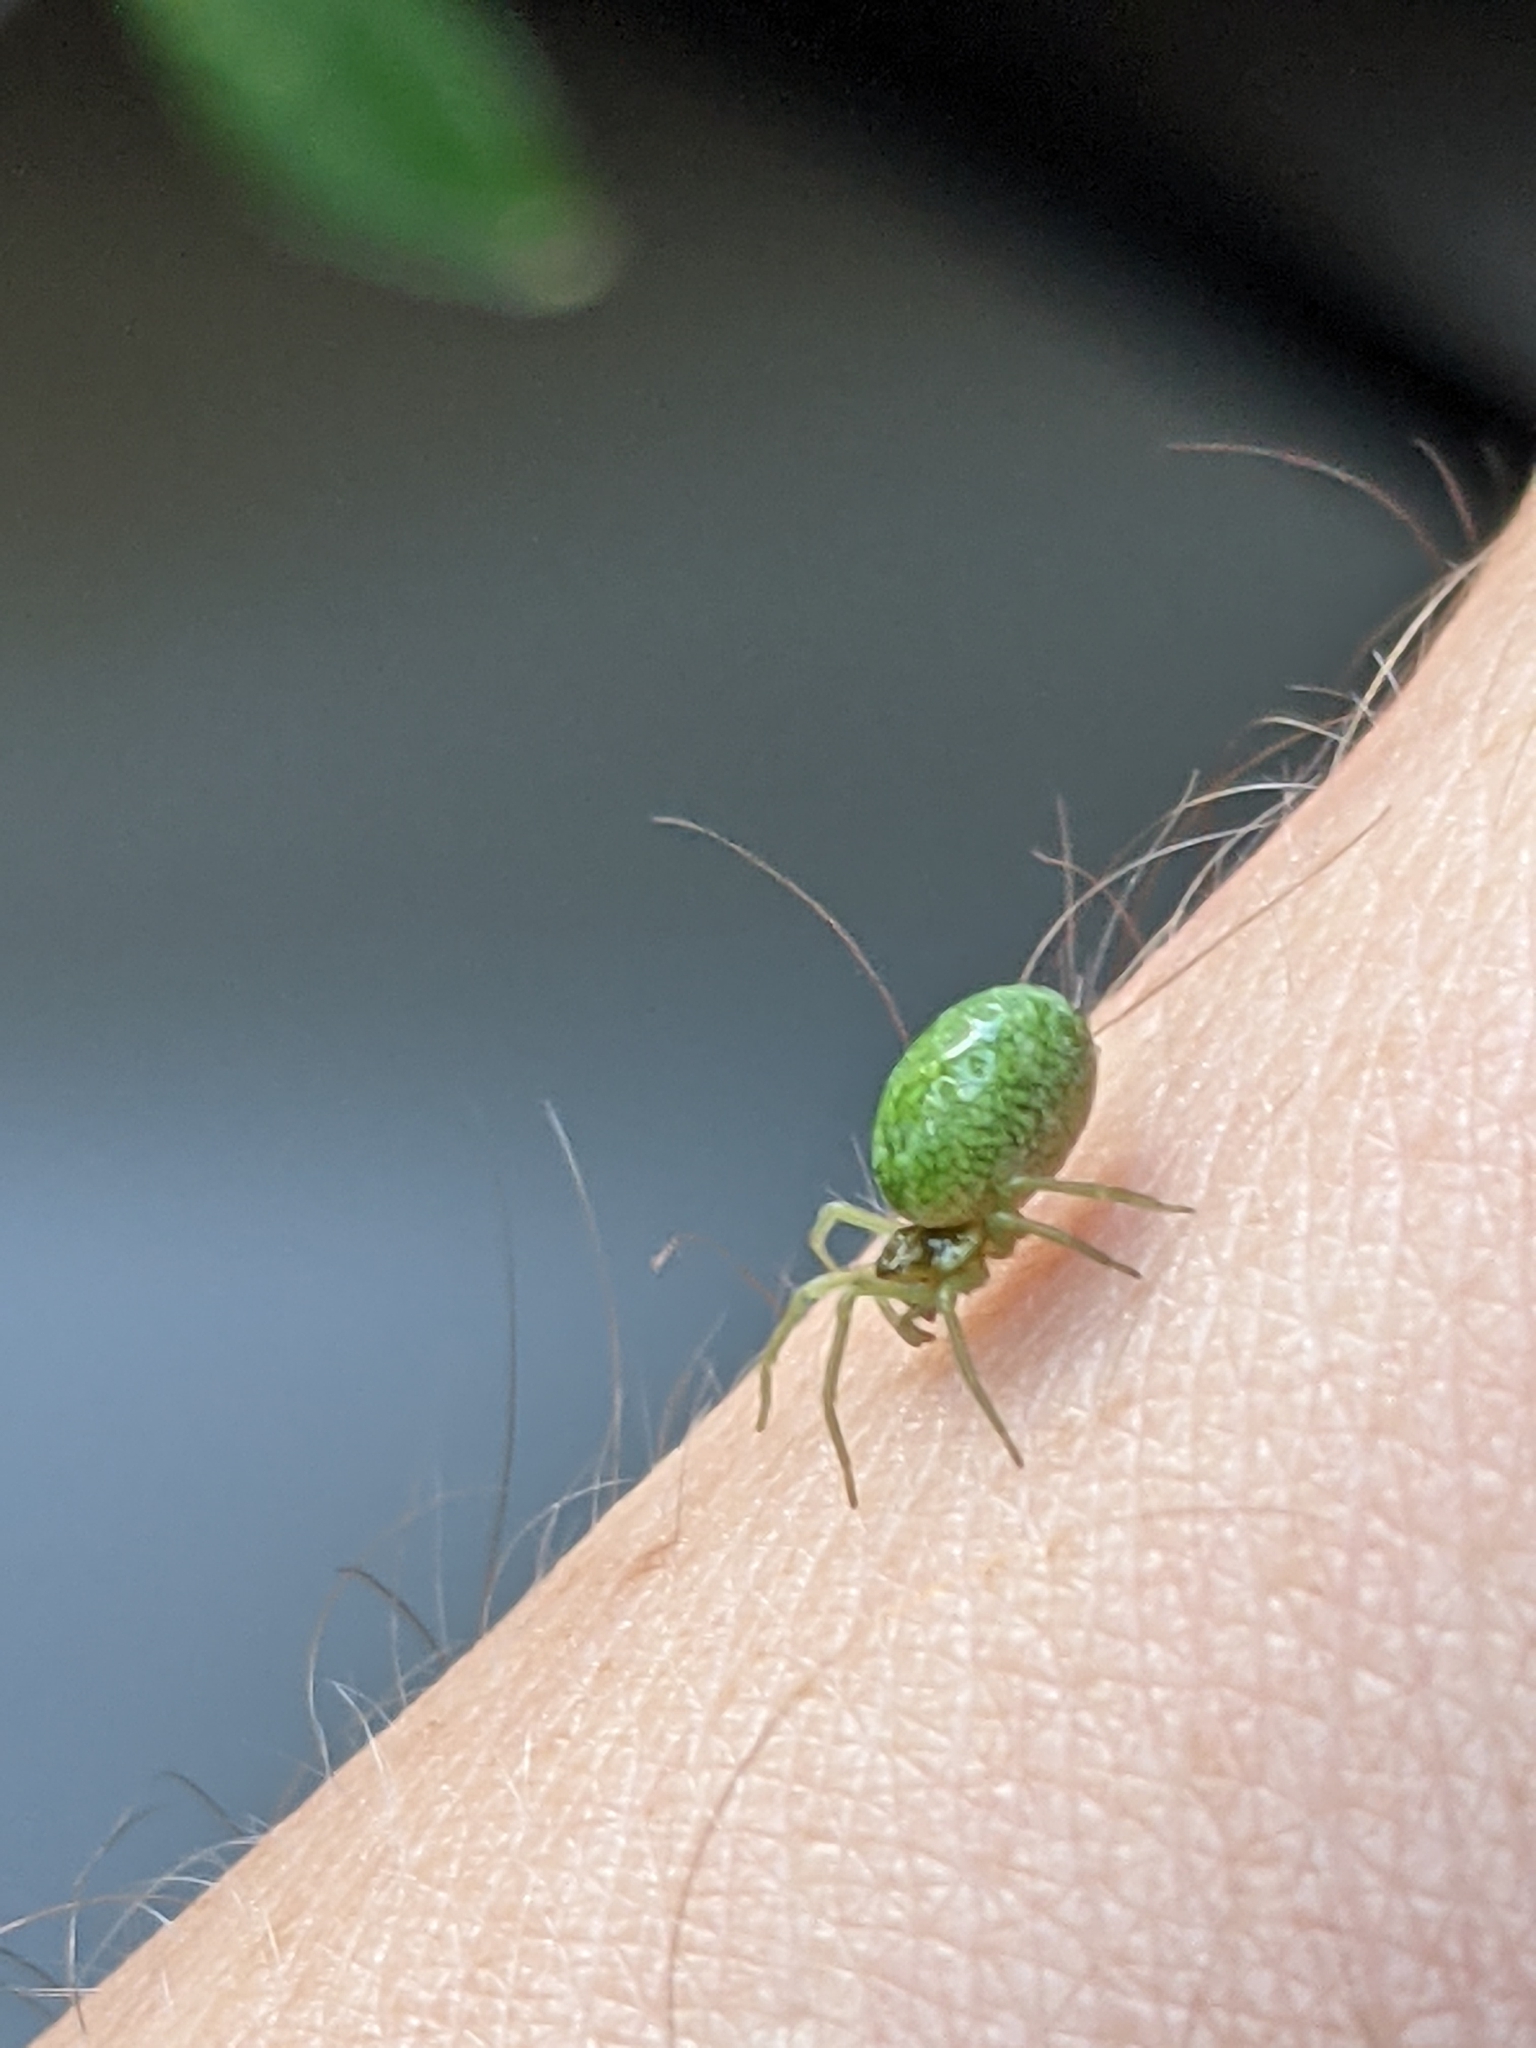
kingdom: Animalia
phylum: Arthropoda
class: Arachnida
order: Araneae
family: Dictynidae
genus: Nigma
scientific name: Nigma walckenaeri
